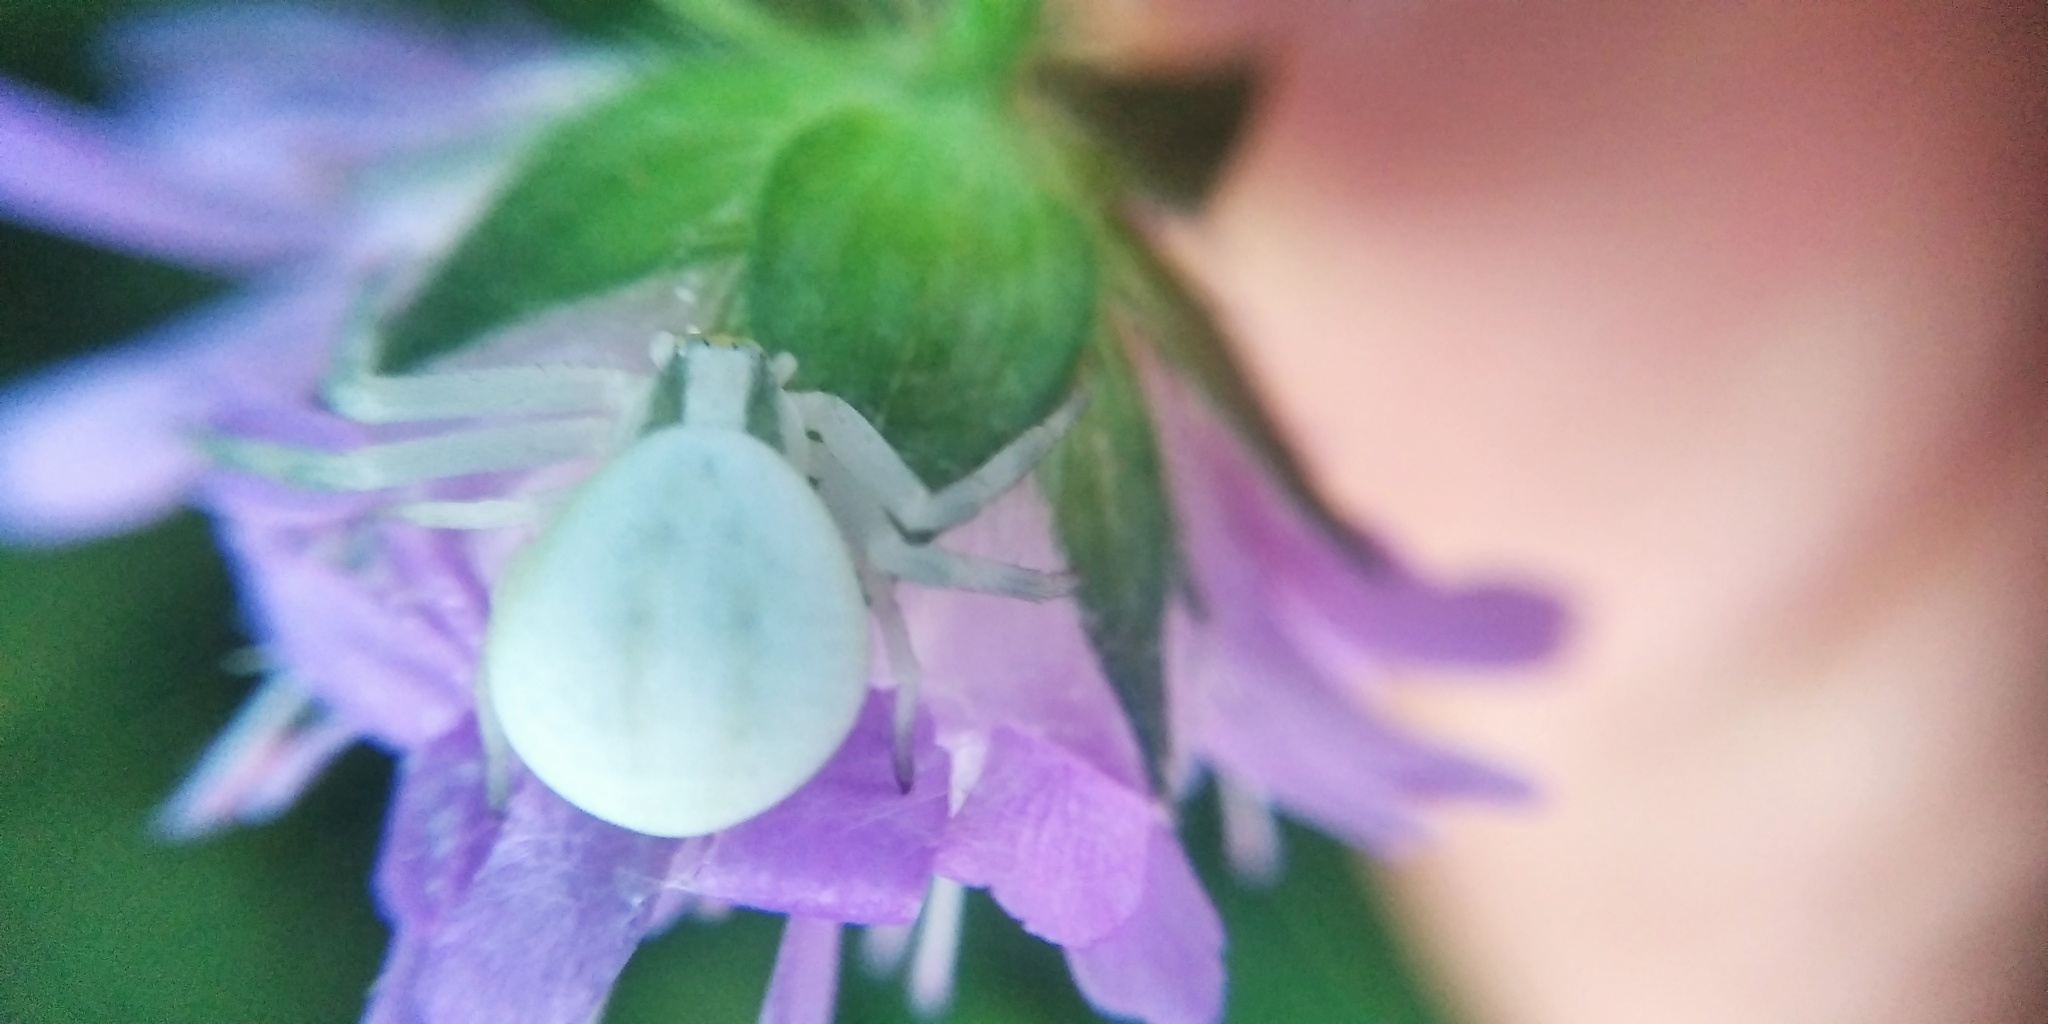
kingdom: Animalia
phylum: Arthropoda
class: Arachnida
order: Araneae
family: Thomisidae
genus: Misumena
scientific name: Misumena vatia
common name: Goldenrod crab spider
